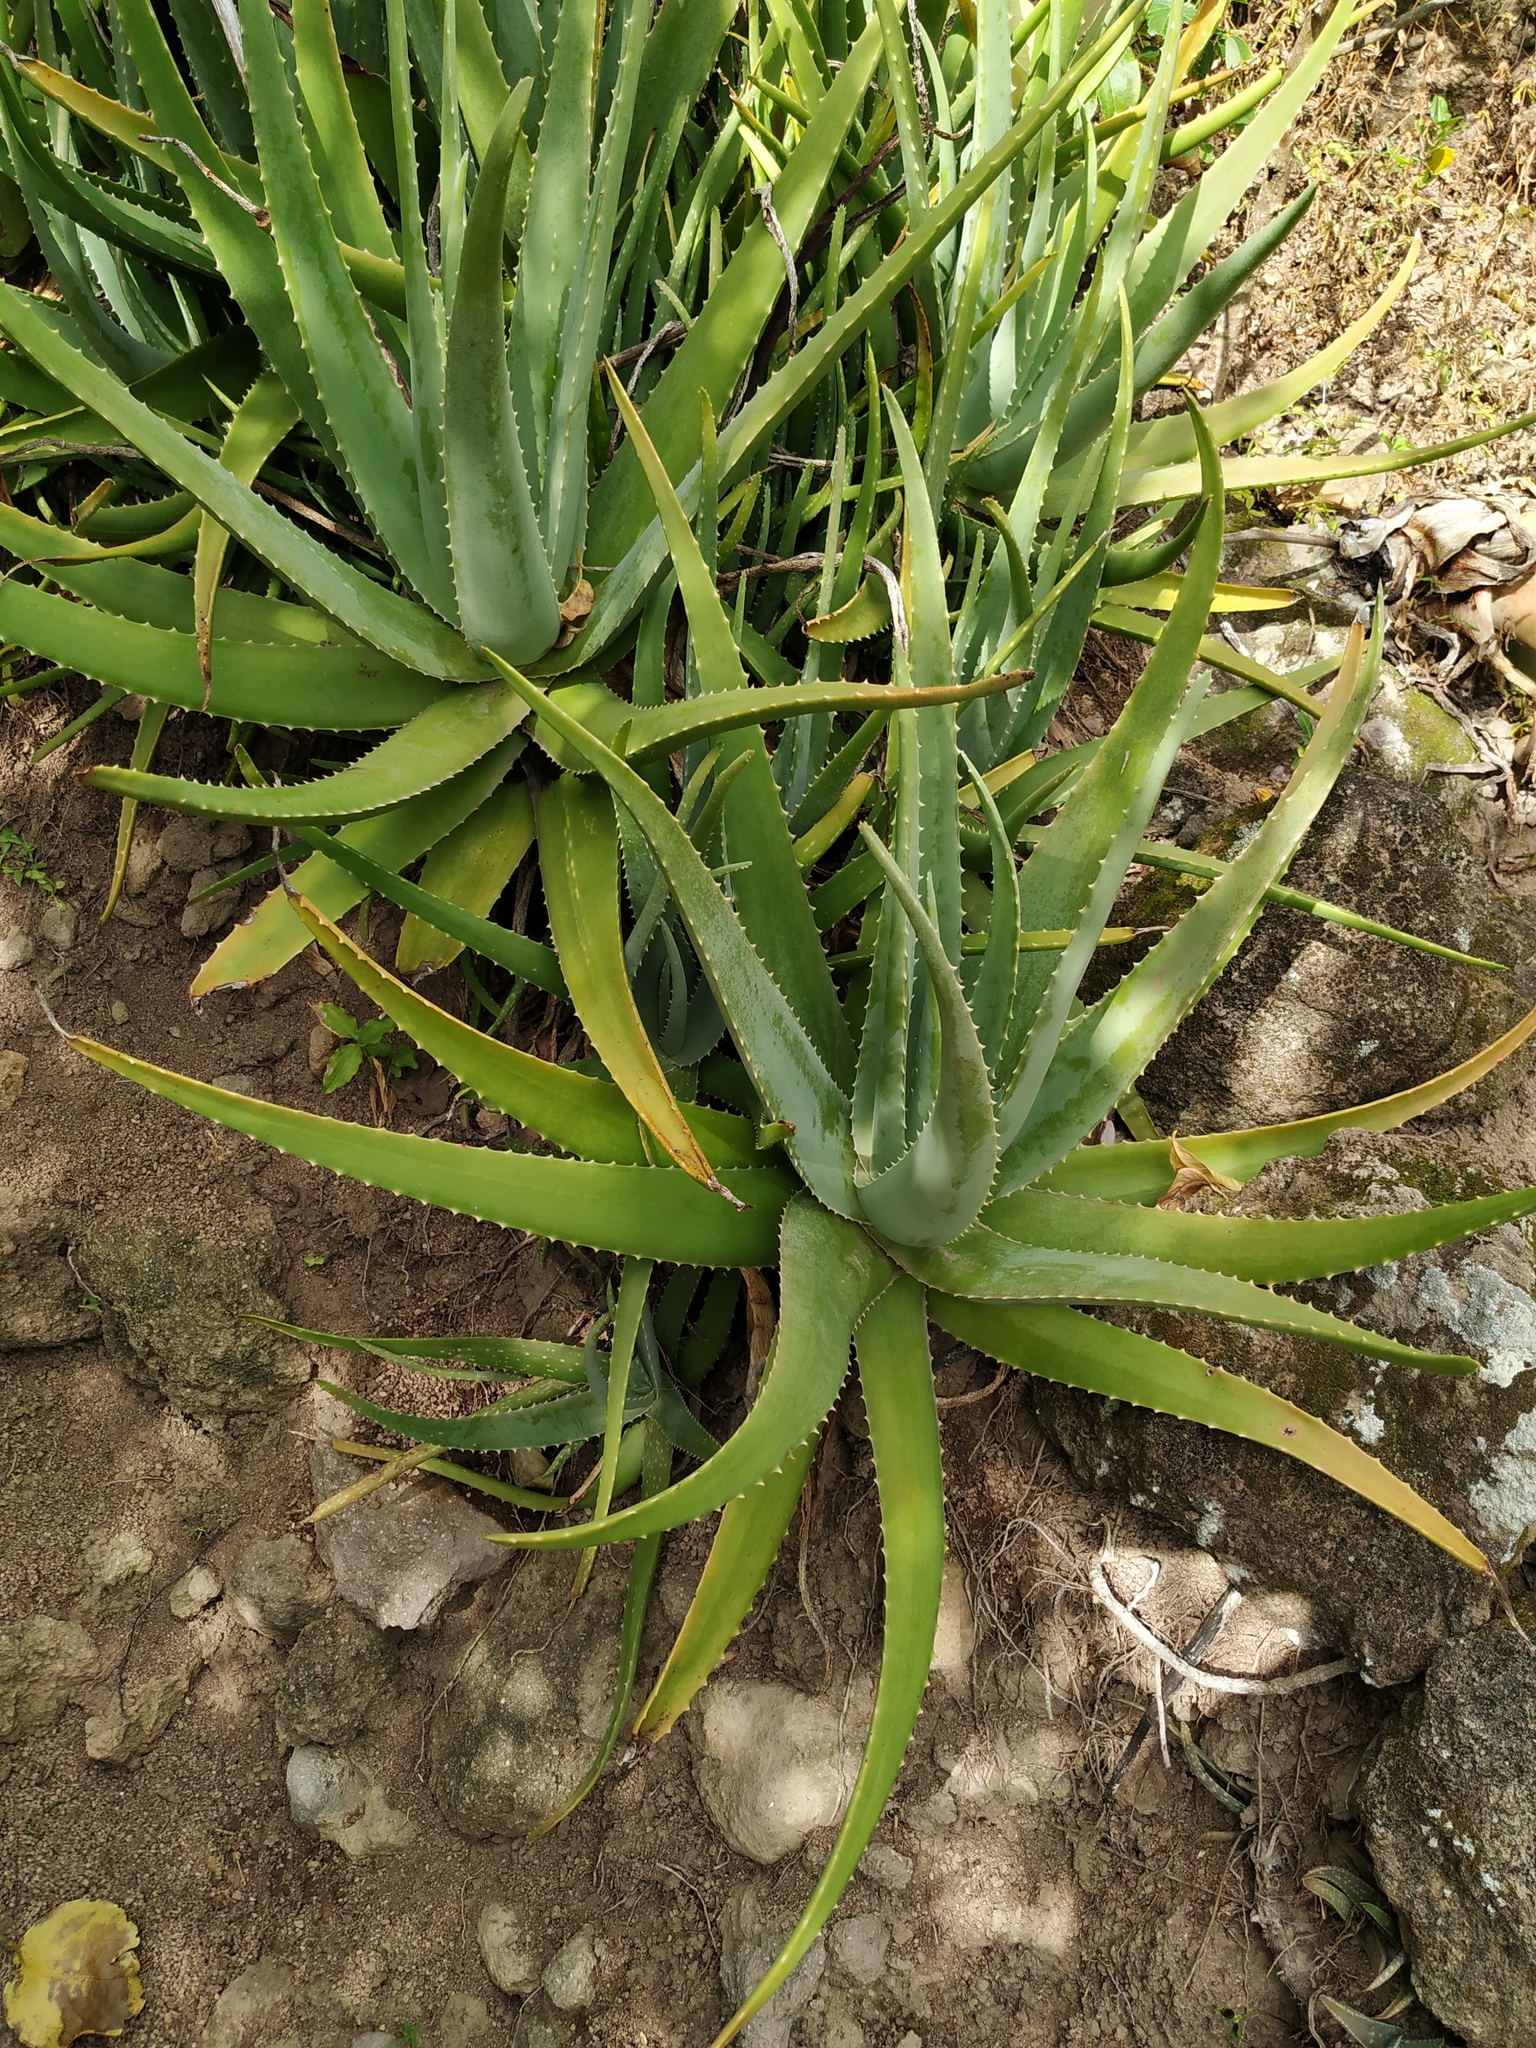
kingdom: Plantae
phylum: Tracheophyta
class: Liliopsida
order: Asparagales
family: Asphodelaceae
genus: Aloe
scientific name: Aloe vera
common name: Barbados aloe
